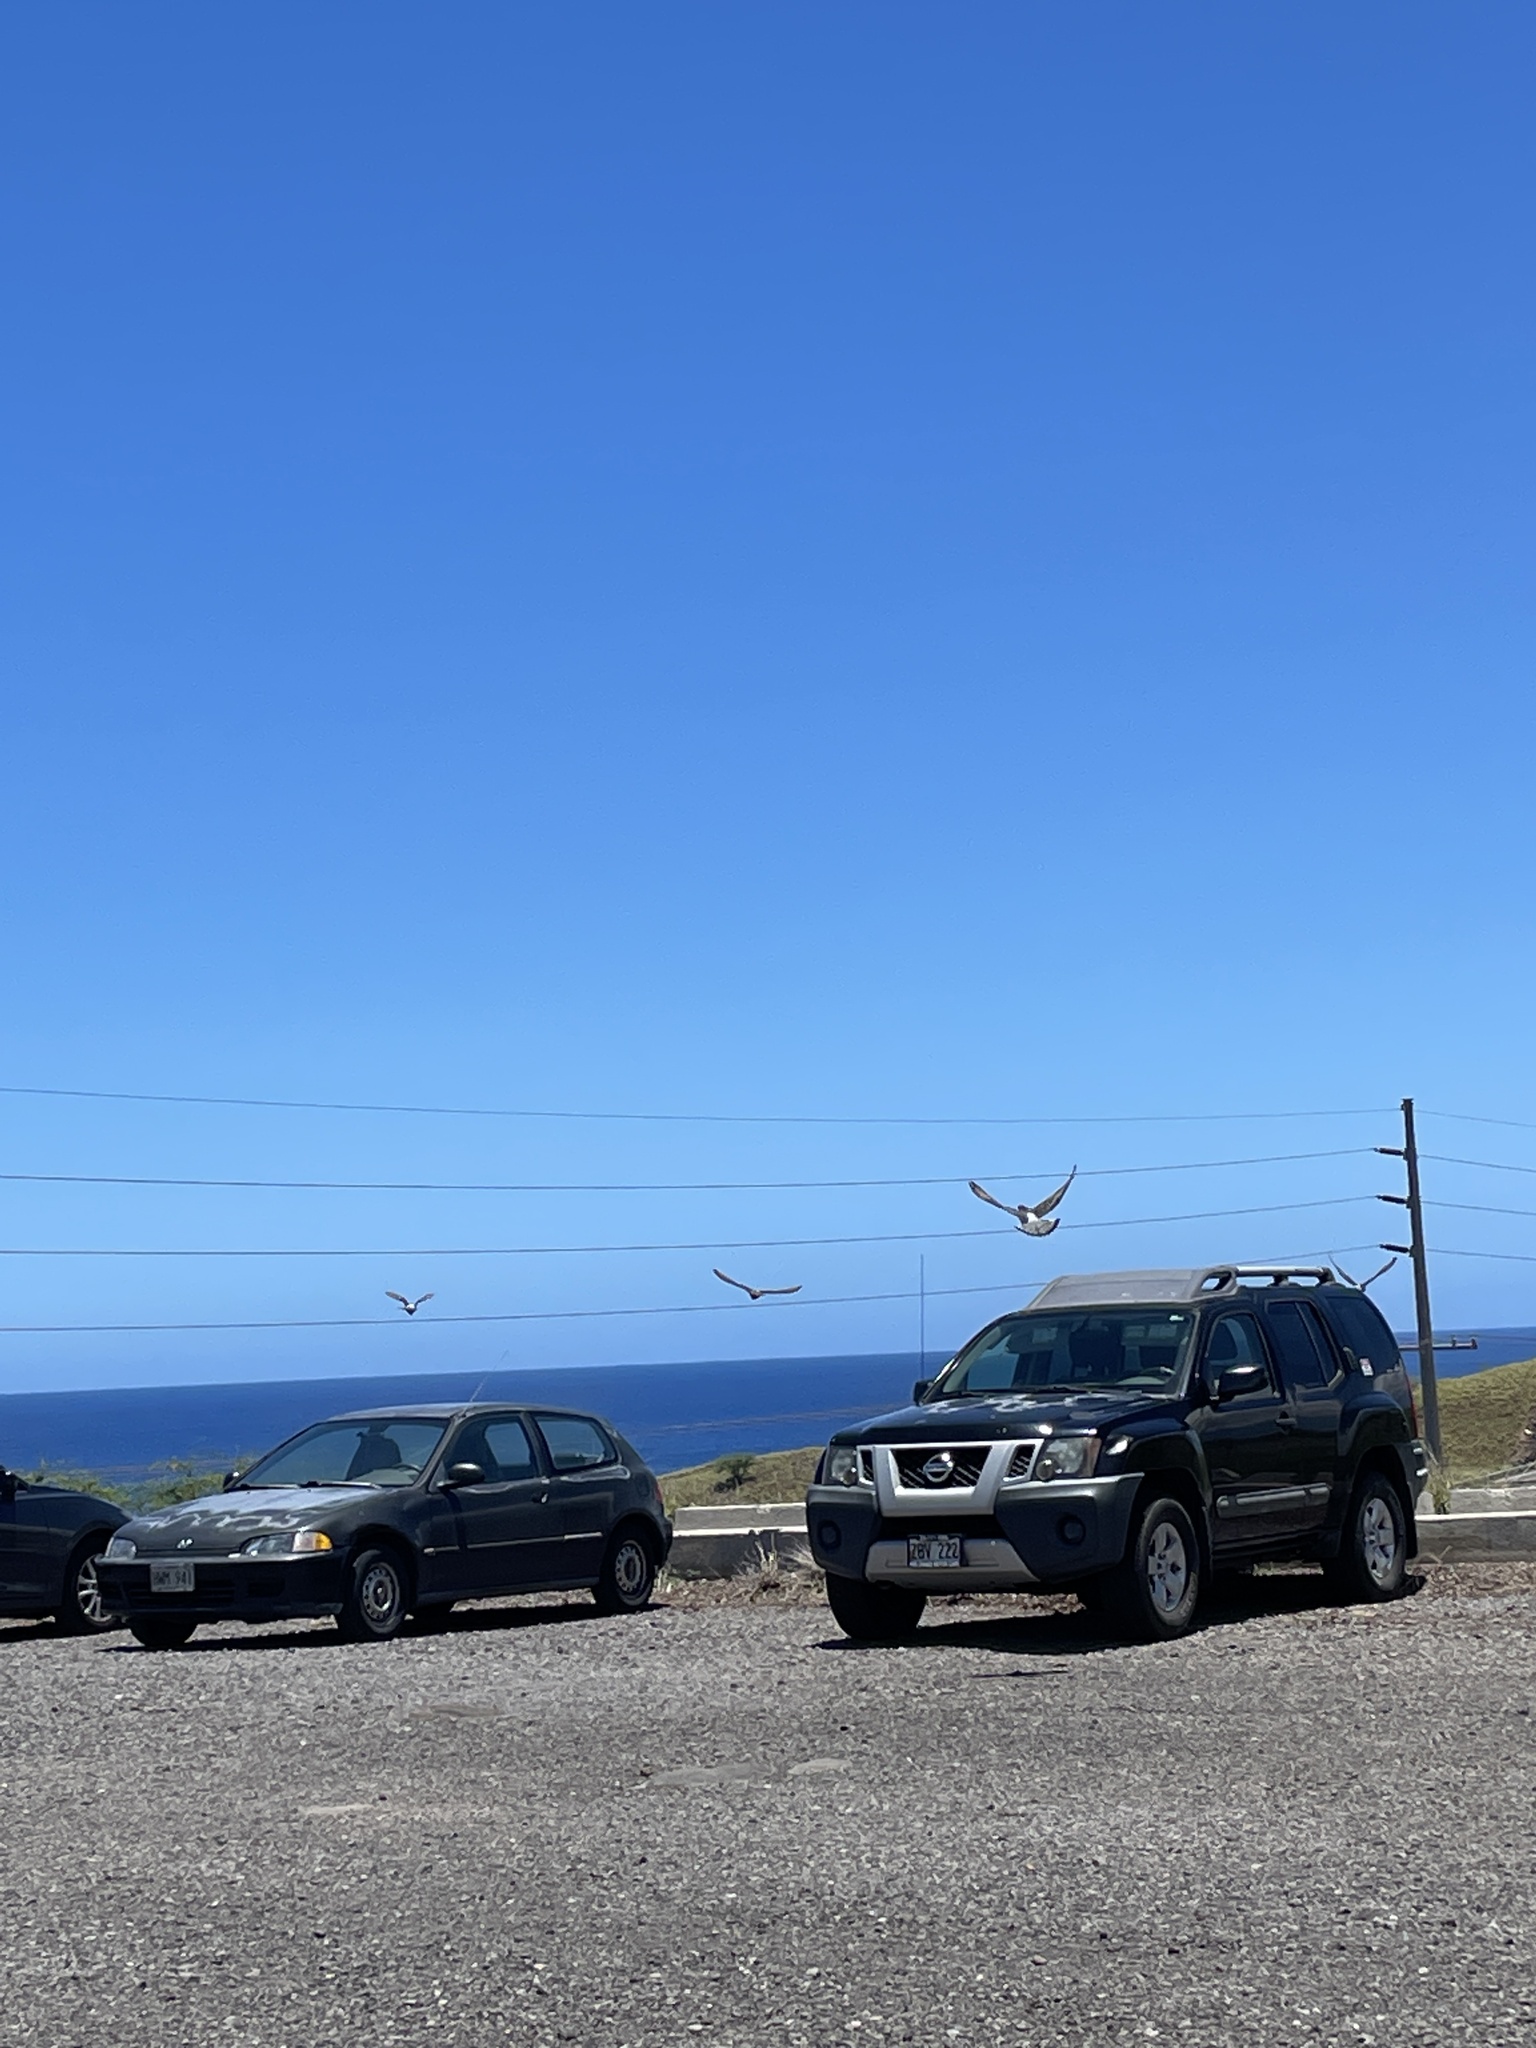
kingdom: Animalia
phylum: Chordata
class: Aves
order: Columbiformes
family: Columbidae
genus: Columba
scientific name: Columba livia
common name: Rock pigeon
